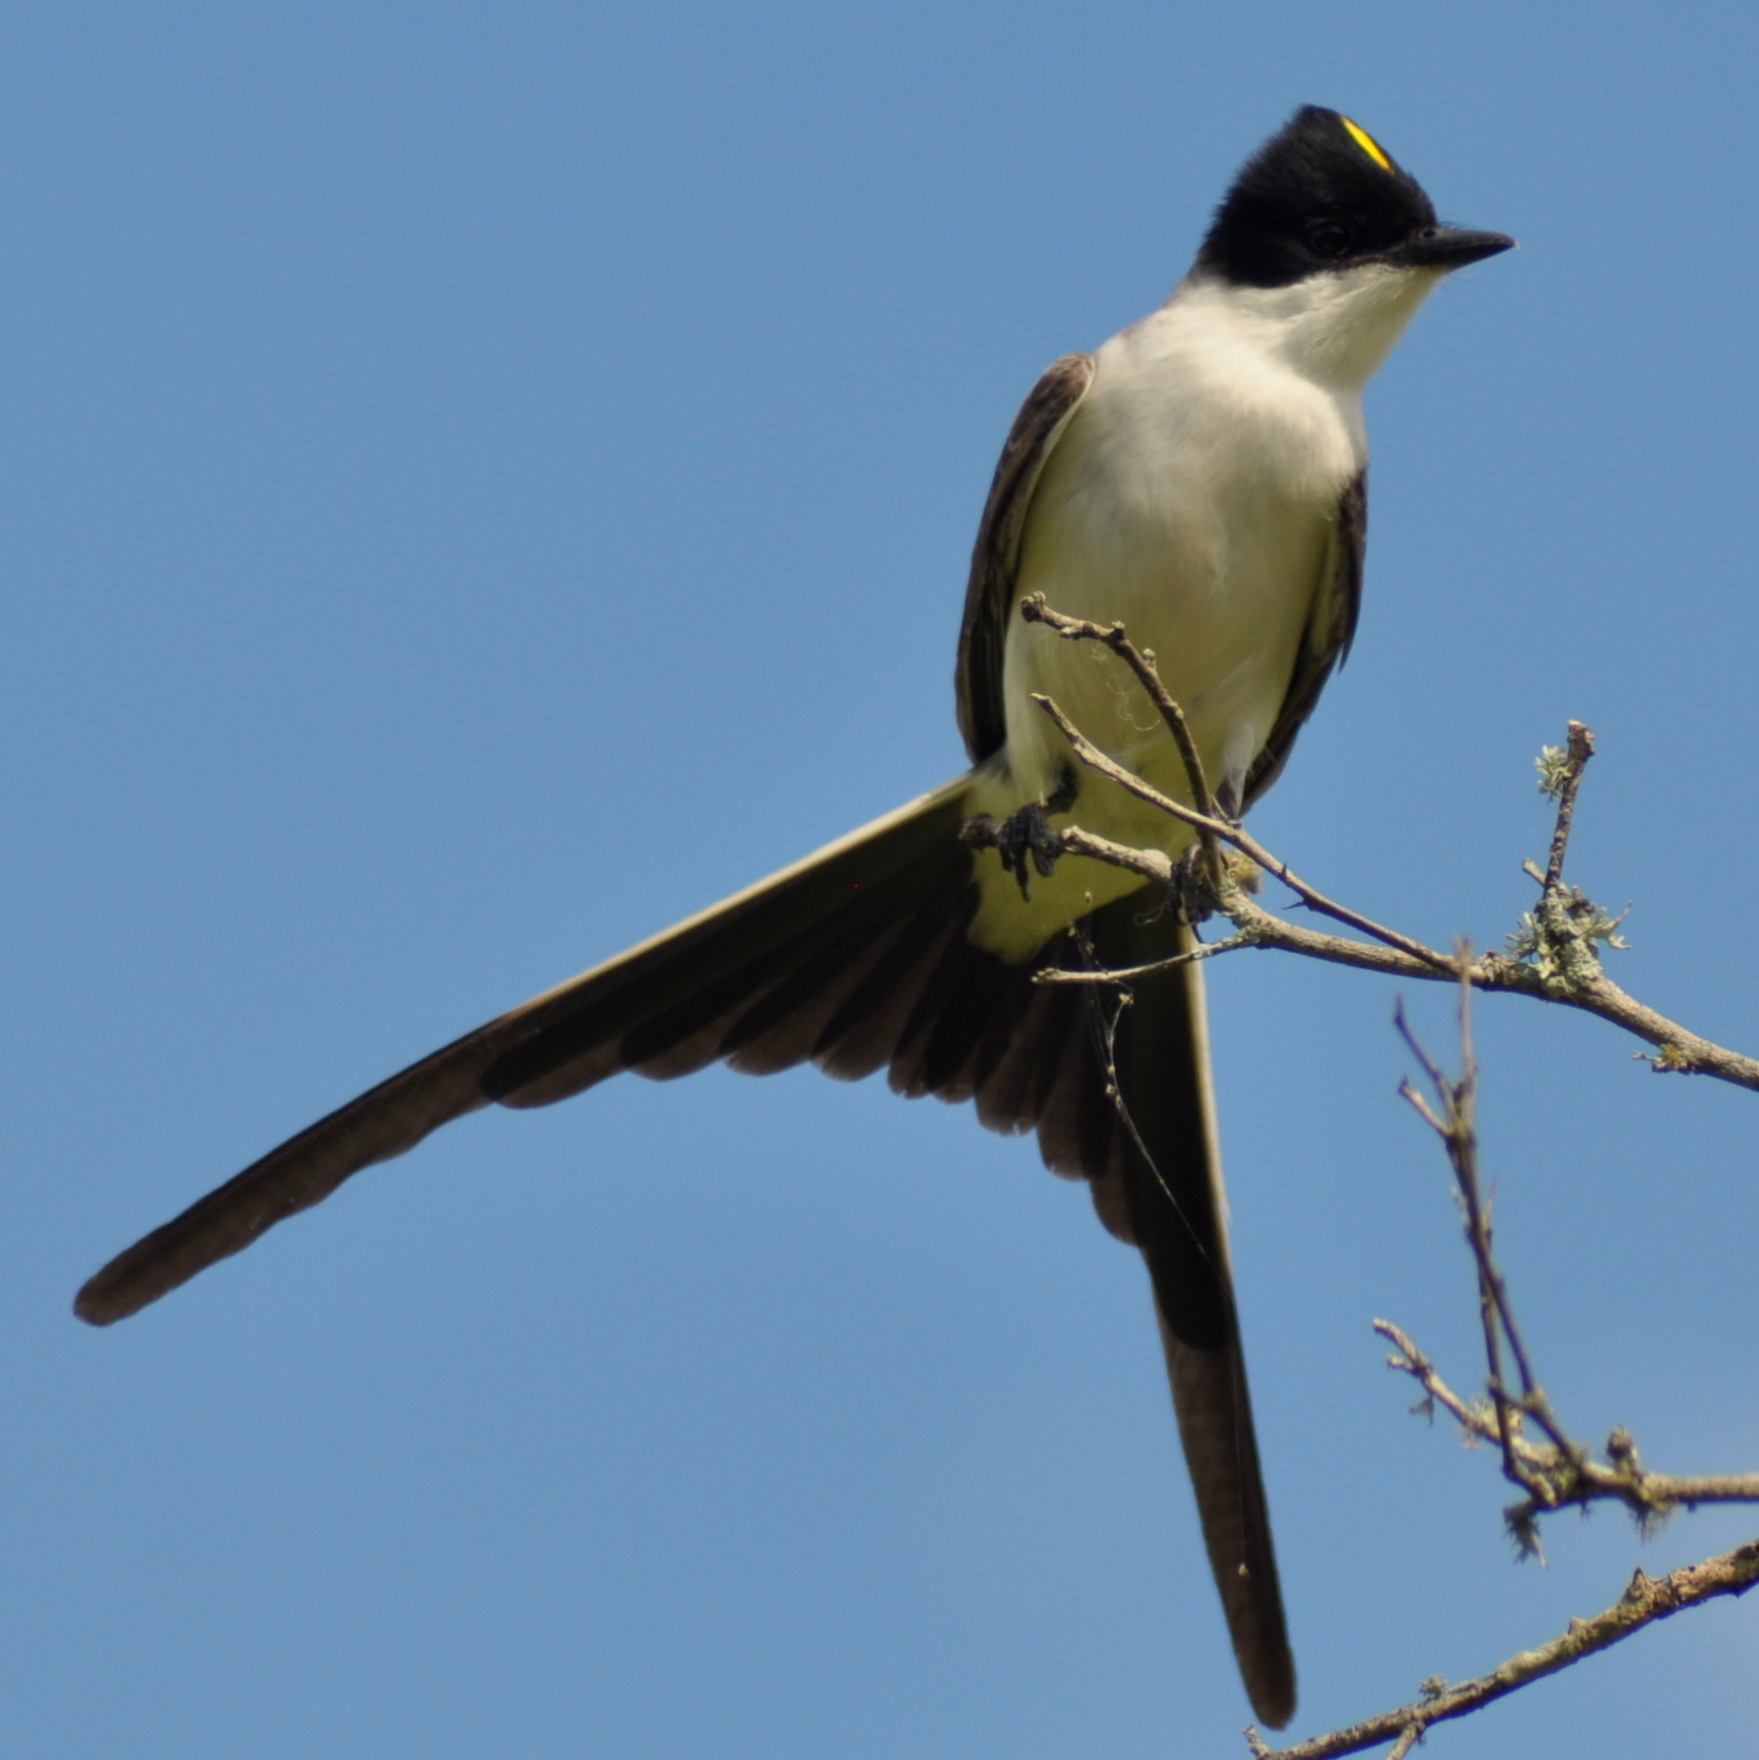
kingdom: Animalia
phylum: Chordata
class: Aves
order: Passeriformes
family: Tyrannidae
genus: Tyrannus
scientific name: Tyrannus savana
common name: Fork-tailed flycatcher
